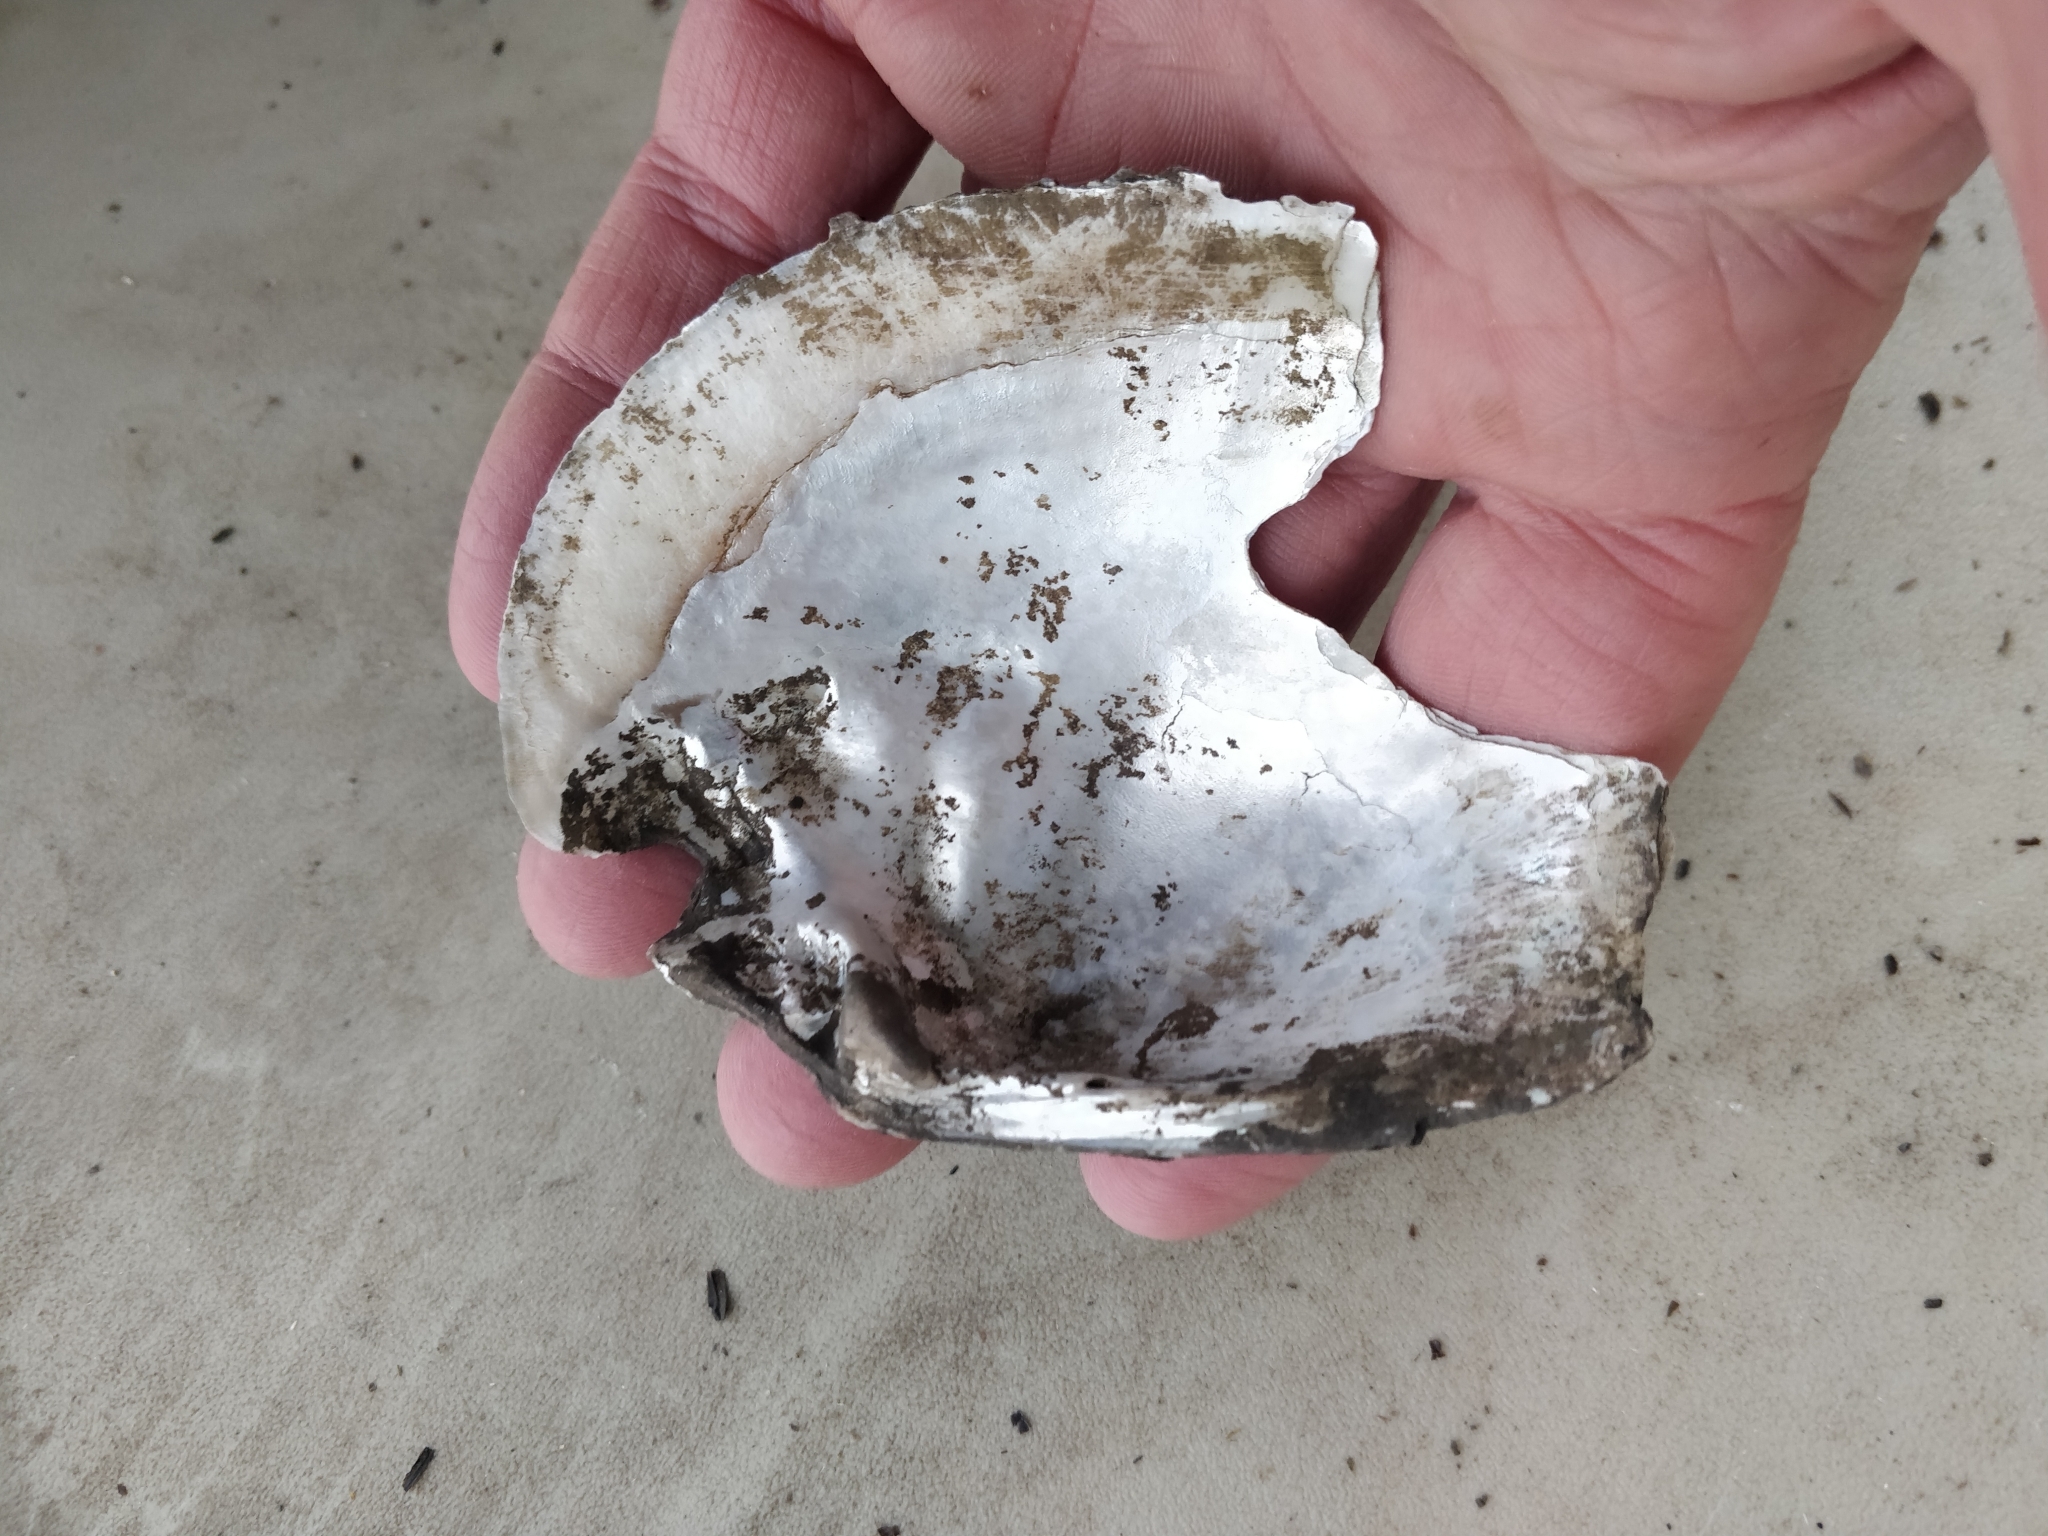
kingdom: Animalia
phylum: Mollusca
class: Bivalvia
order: Unionida
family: Unionidae
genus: Lasmigona
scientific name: Lasmigona complanata
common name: White heelsplitter
